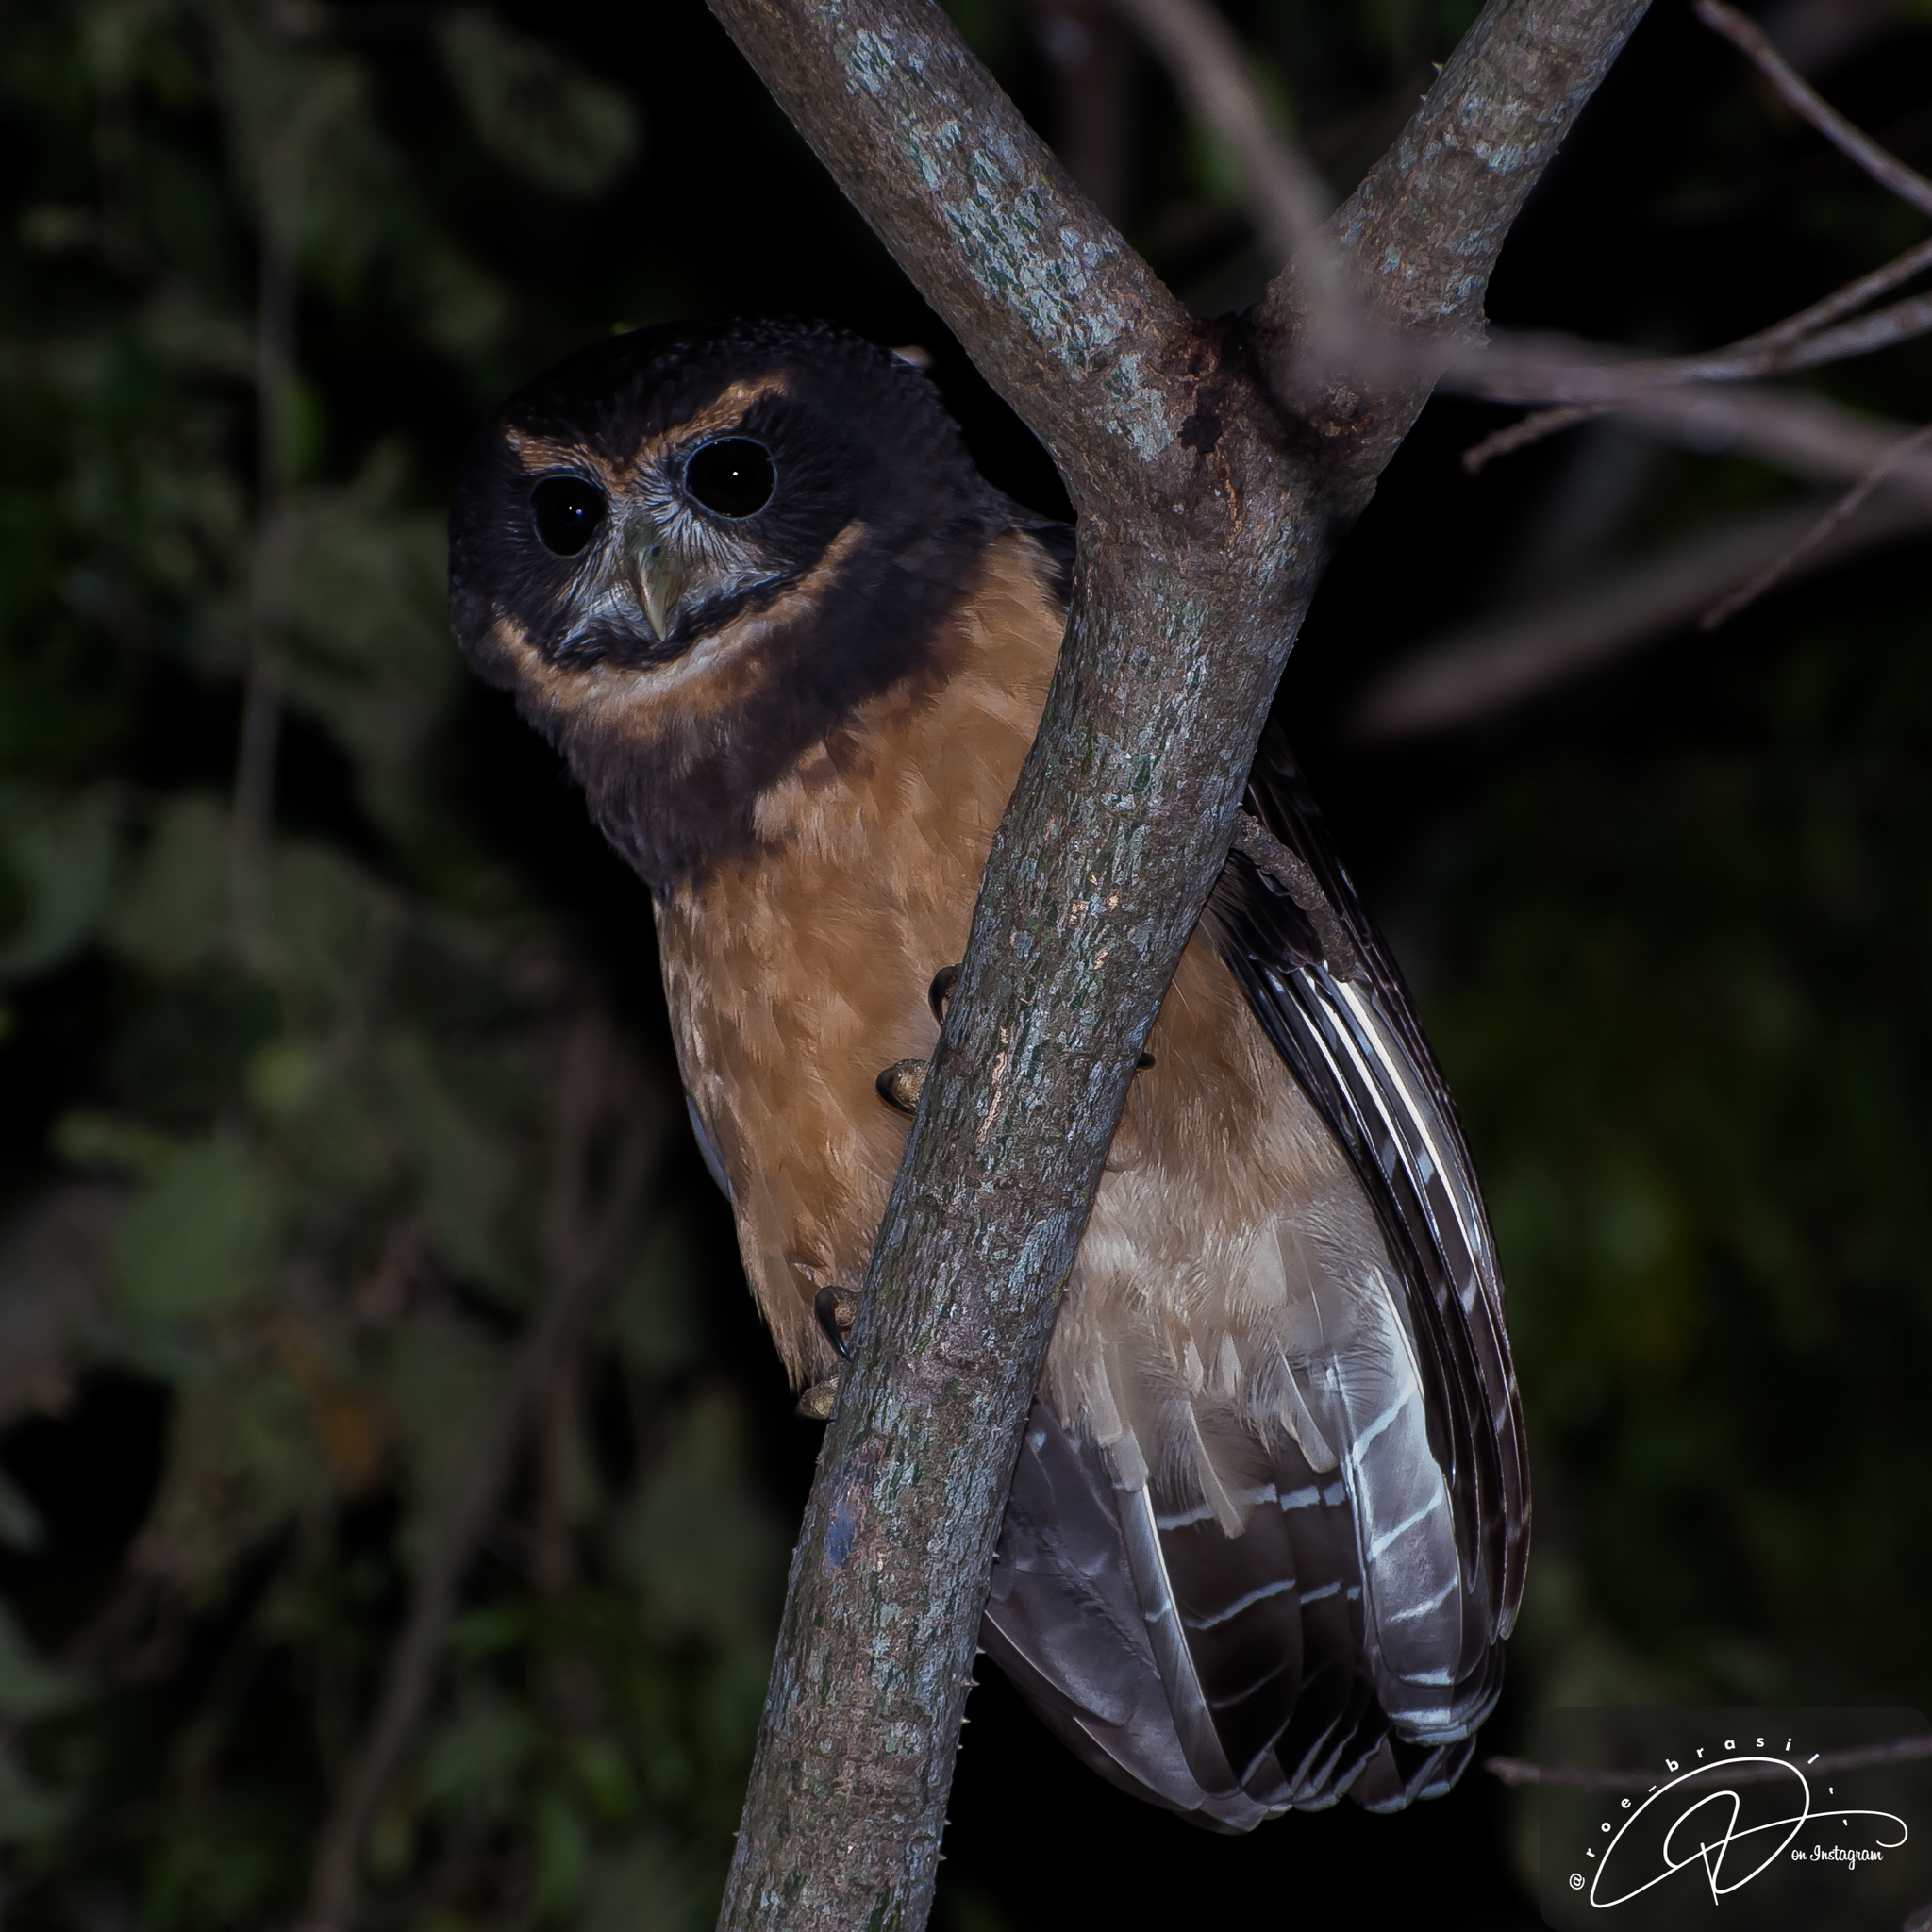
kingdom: Animalia
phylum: Chordata
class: Aves
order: Strigiformes
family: Strigidae
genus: Pulsatrix
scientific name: Pulsatrix koeniswaldiana
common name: Tawny-browed owl
